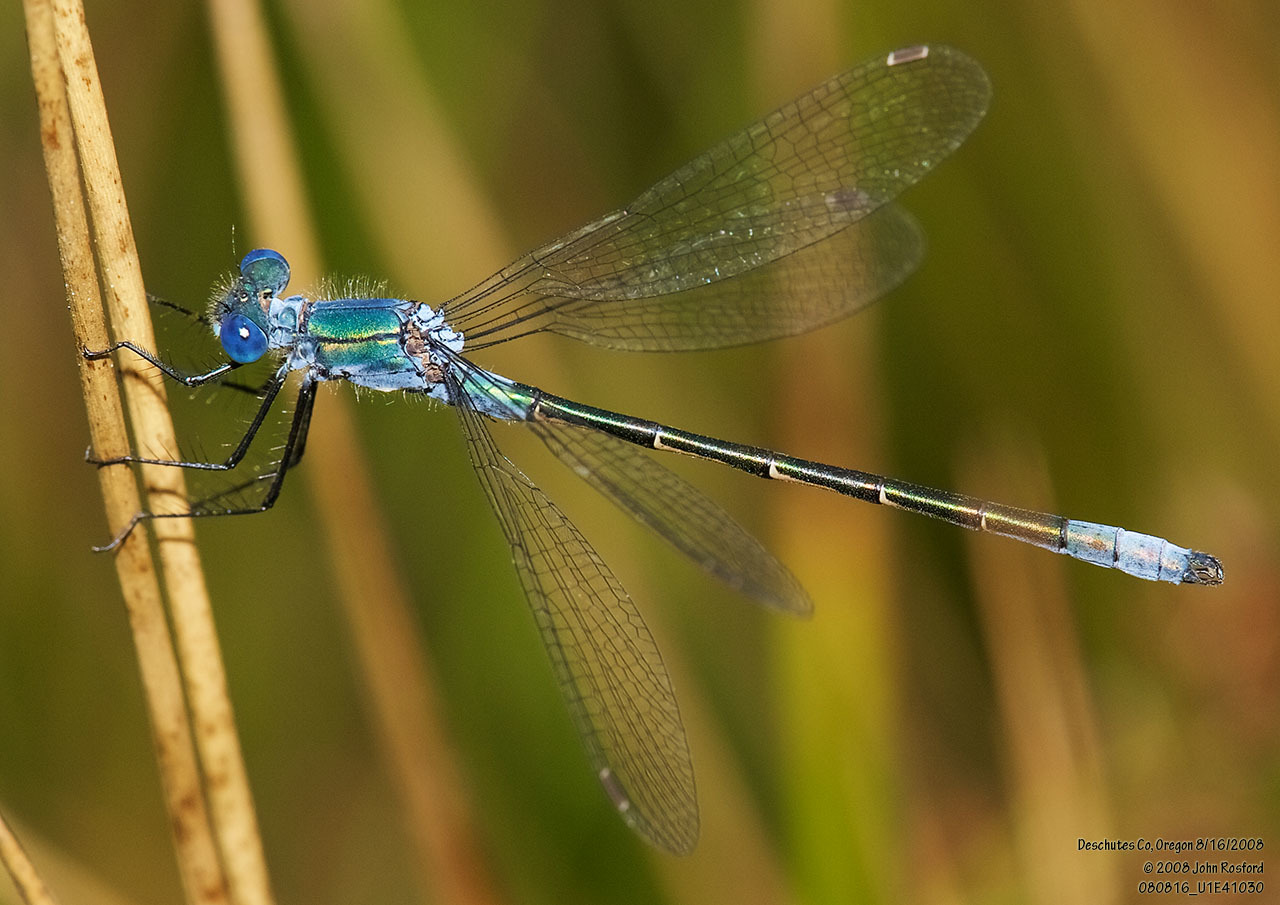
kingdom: Animalia
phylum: Arthropoda
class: Insecta
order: Odonata
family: Lestidae
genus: Lestes
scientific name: Lestes dryas
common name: Scarce emerald damselfly
